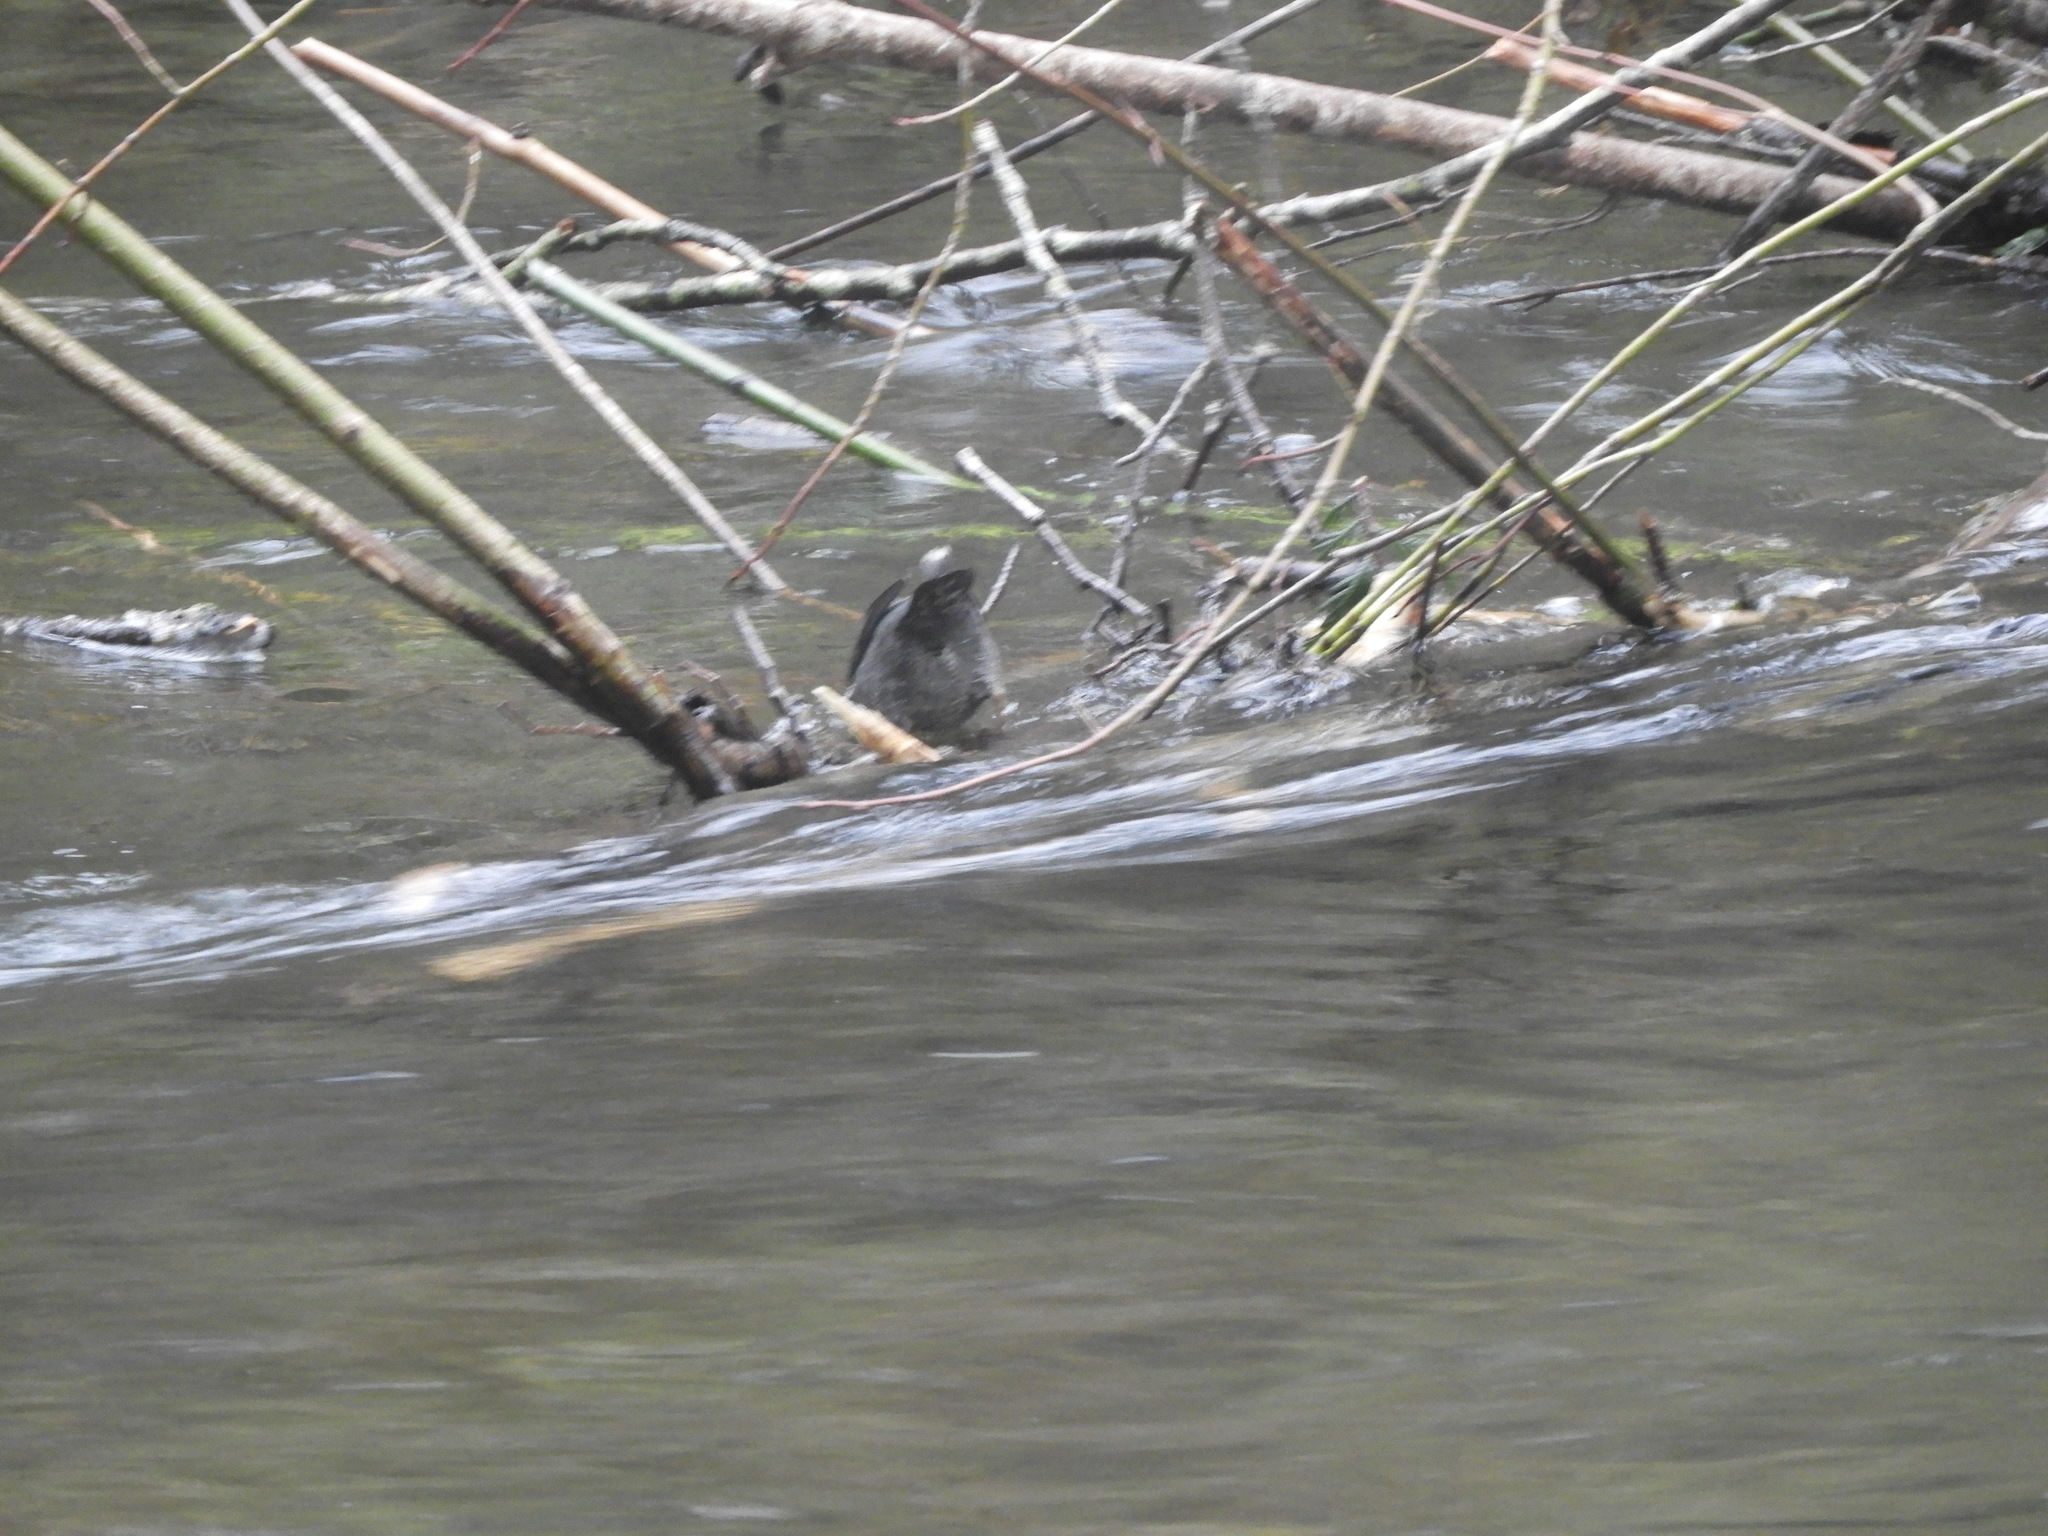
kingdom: Animalia
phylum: Chordata
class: Aves
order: Passeriformes
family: Cinclidae
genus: Cinclus
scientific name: Cinclus mexicanus
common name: American dipper
